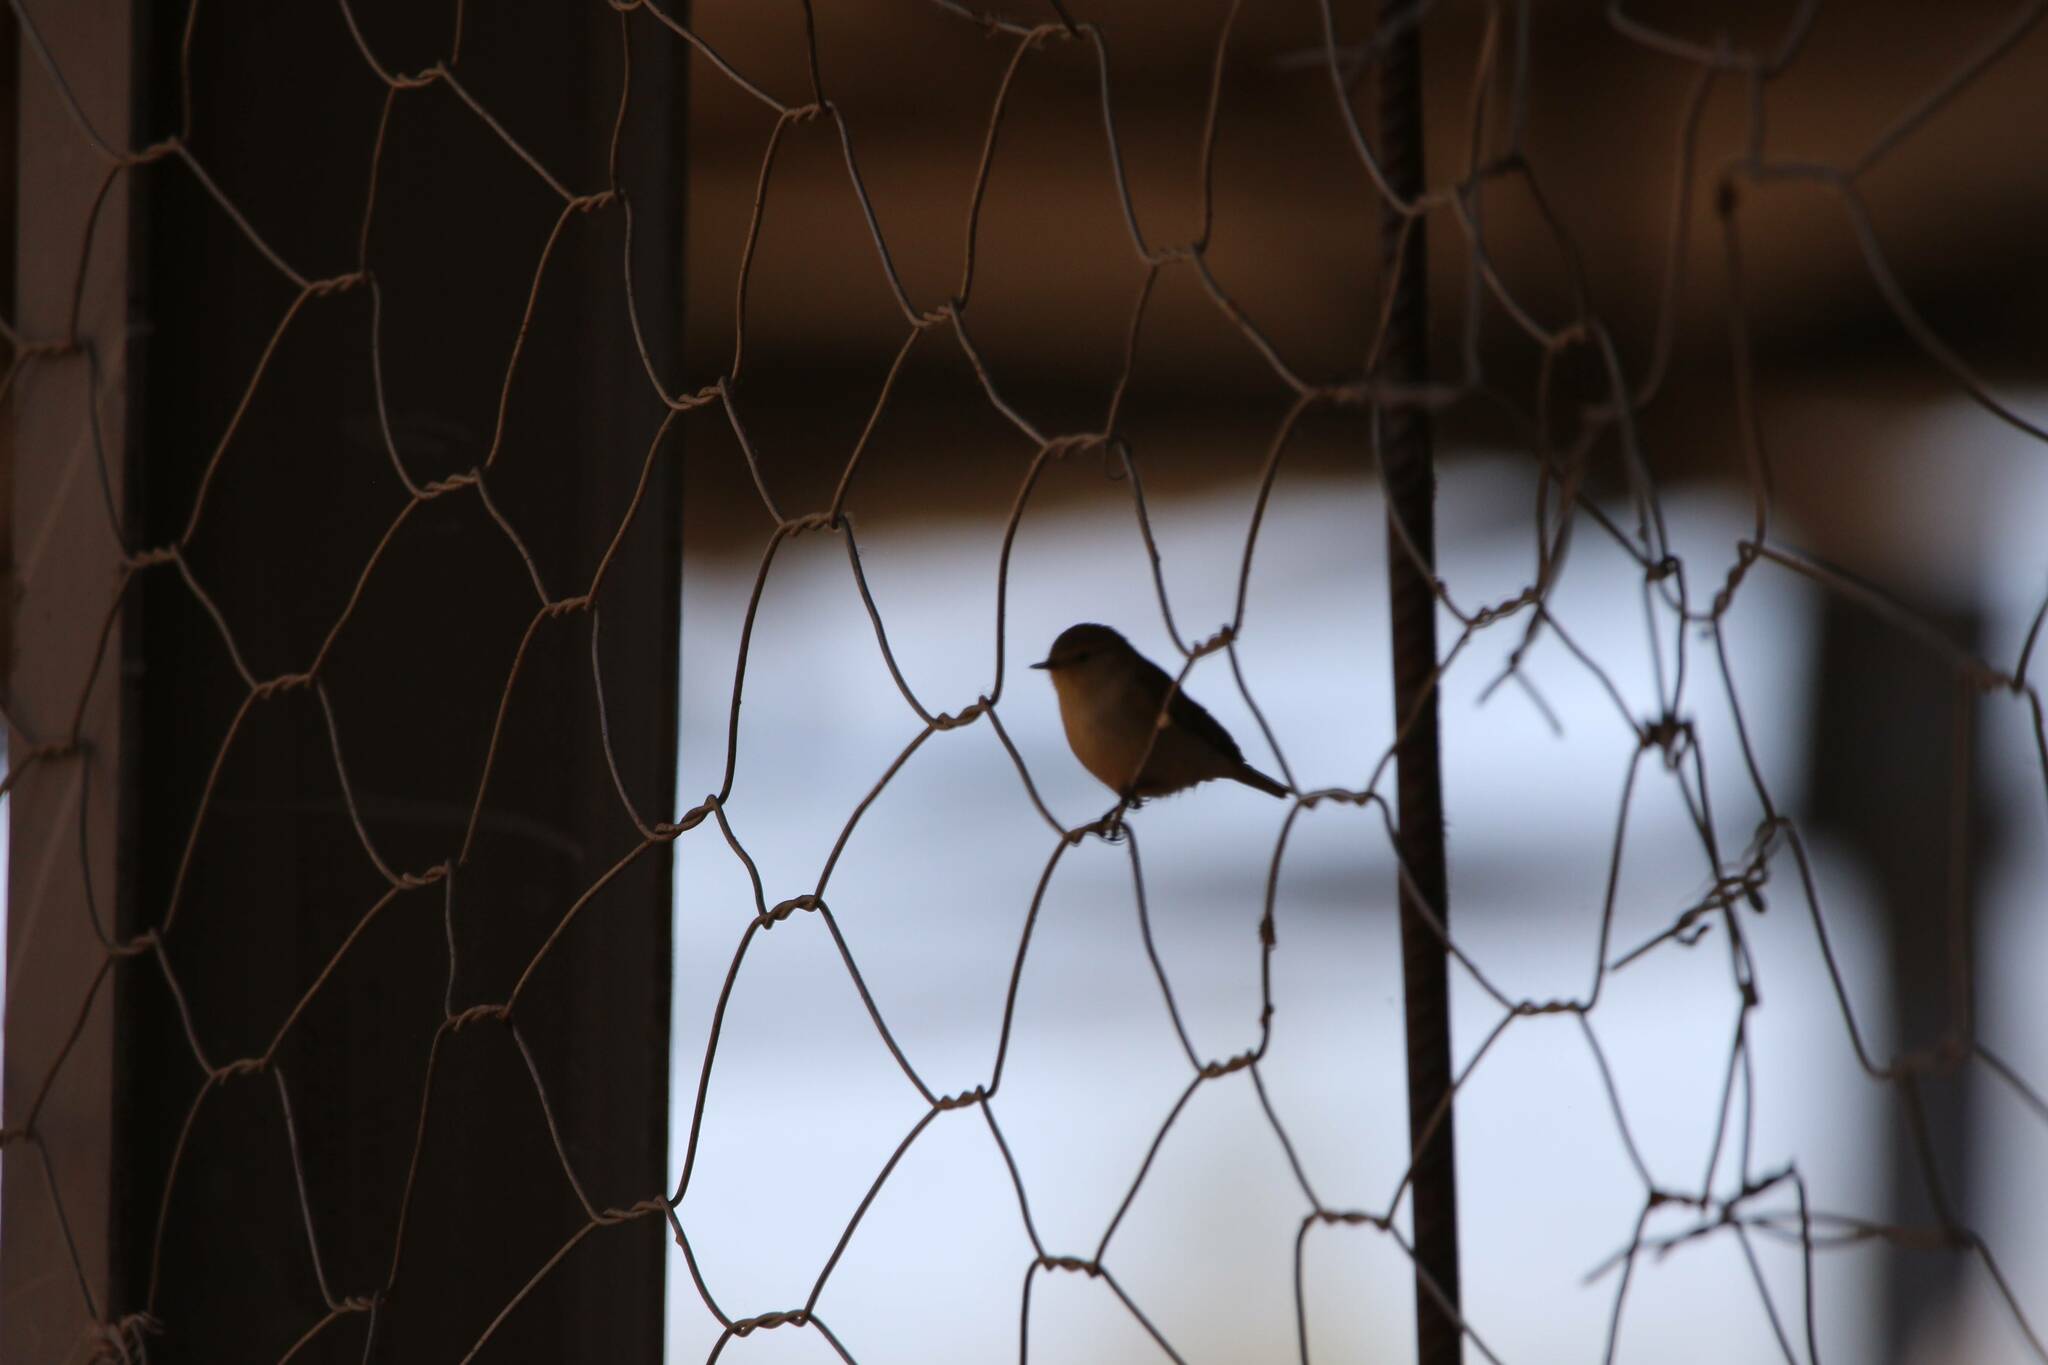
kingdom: Animalia
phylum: Chordata
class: Aves
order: Passeriformes
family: Phylloscopidae
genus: Phylloscopus
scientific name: Phylloscopus collybita
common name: Common chiffchaff
